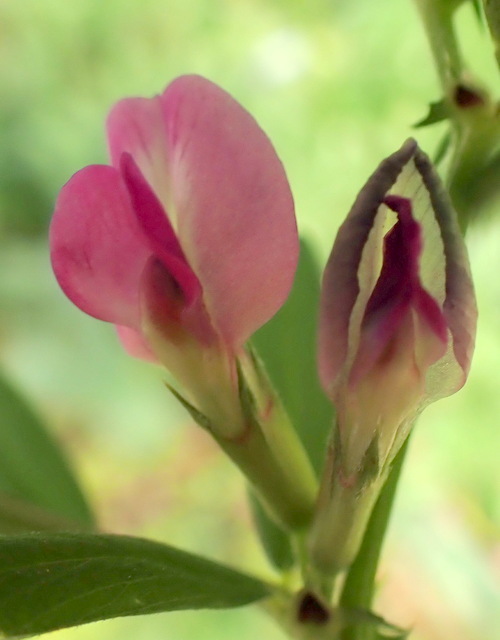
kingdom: Plantae
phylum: Tracheophyta
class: Magnoliopsida
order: Fabales
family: Fabaceae
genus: Vicia
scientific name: Vicia sativa
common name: Garden vetch
